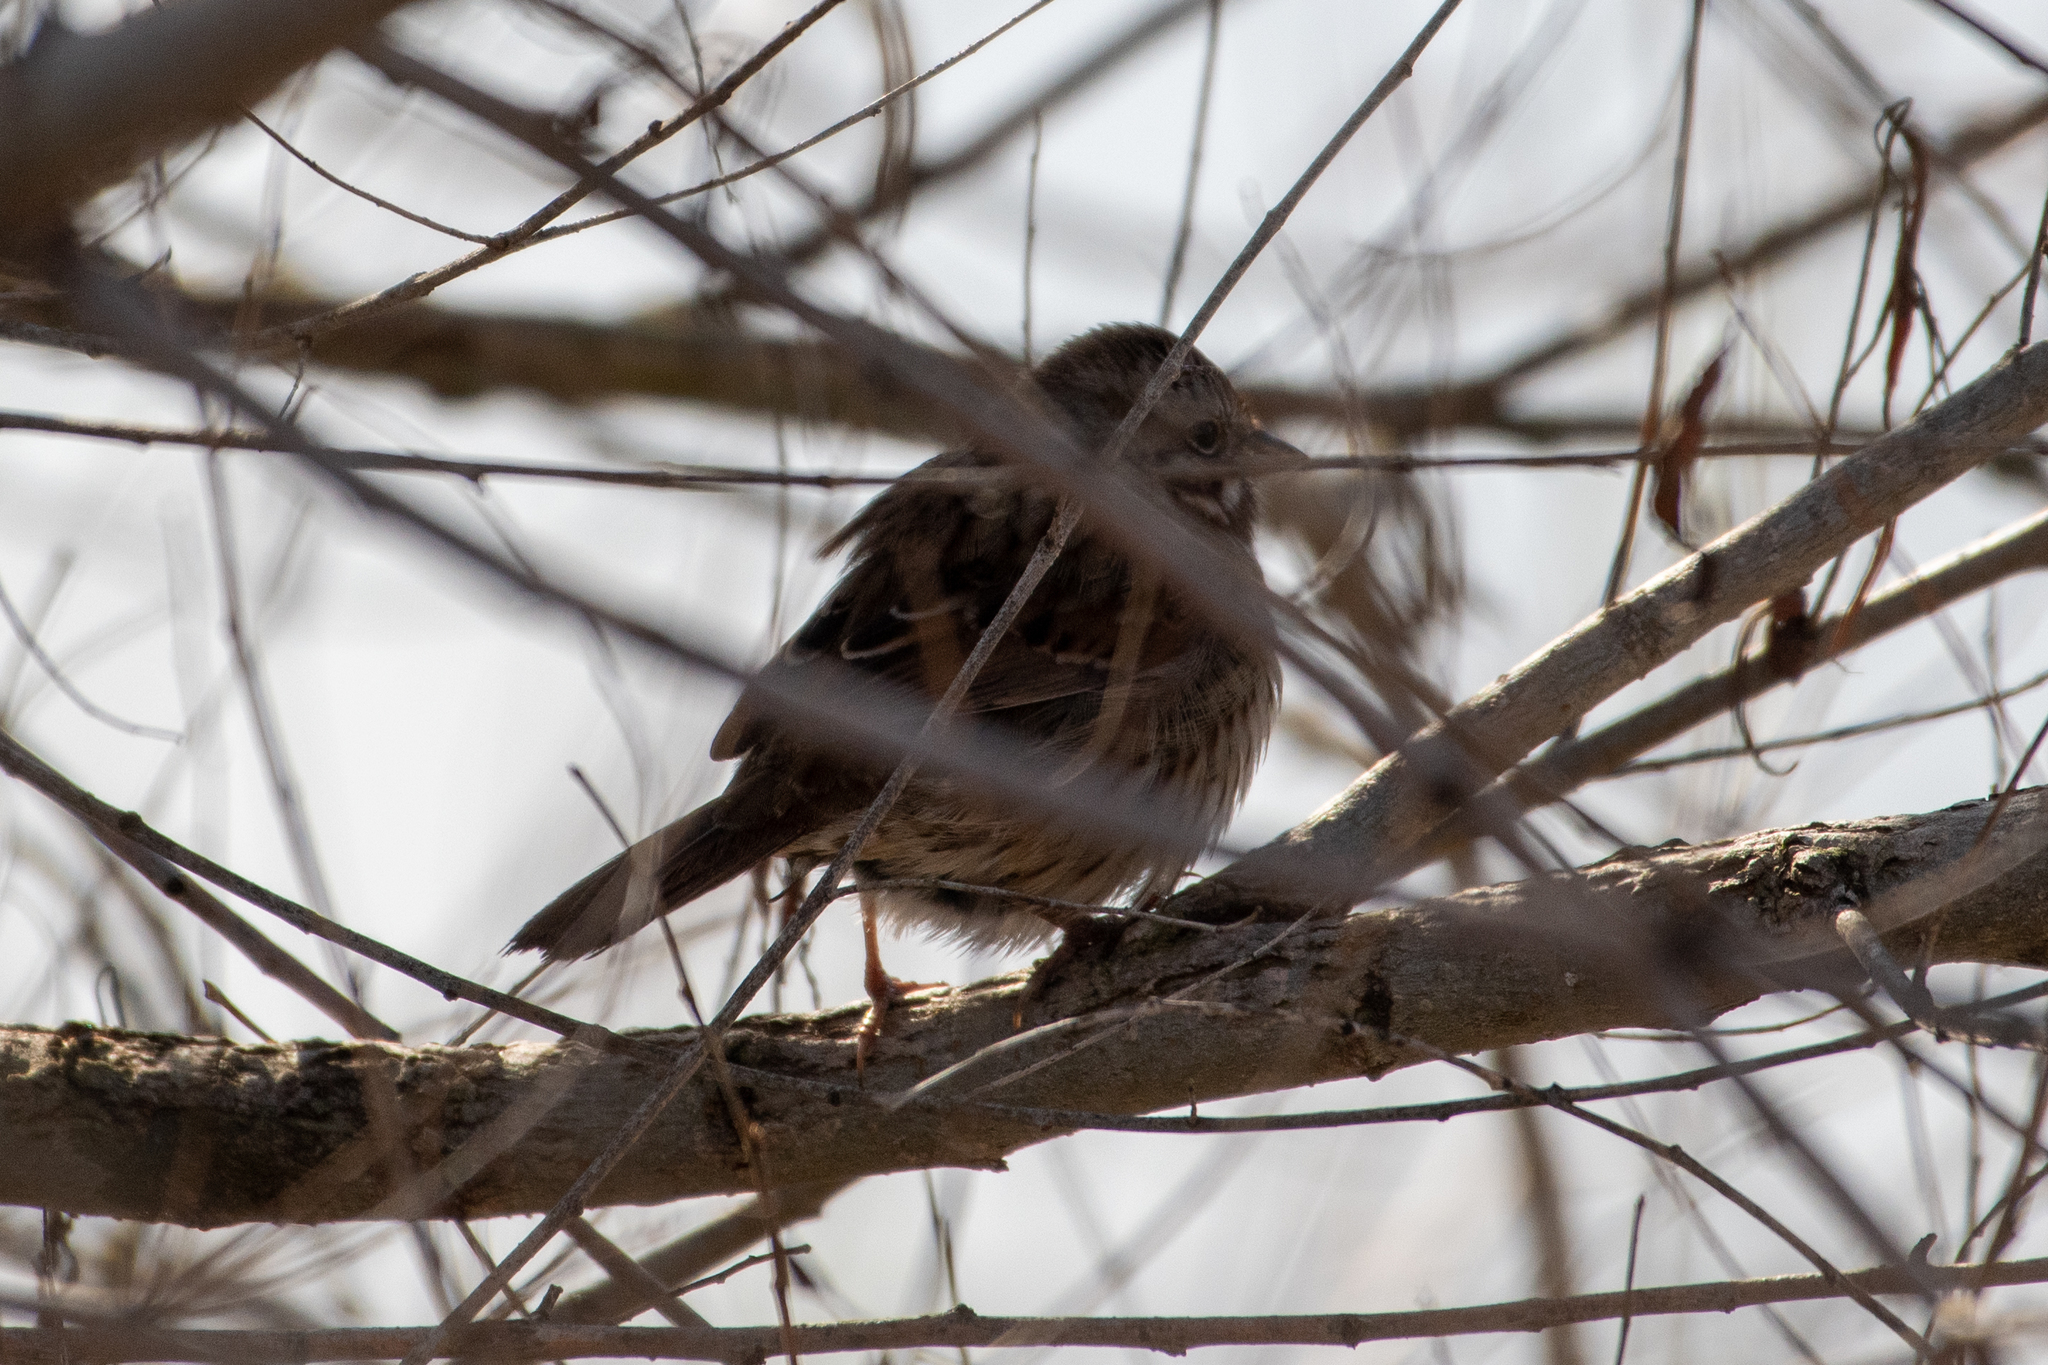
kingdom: Animalia
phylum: Chordata
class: Aves
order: Passeriformes
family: Passerellidae
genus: Melospiza
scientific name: Melospiza melodia
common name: Song sparrow
